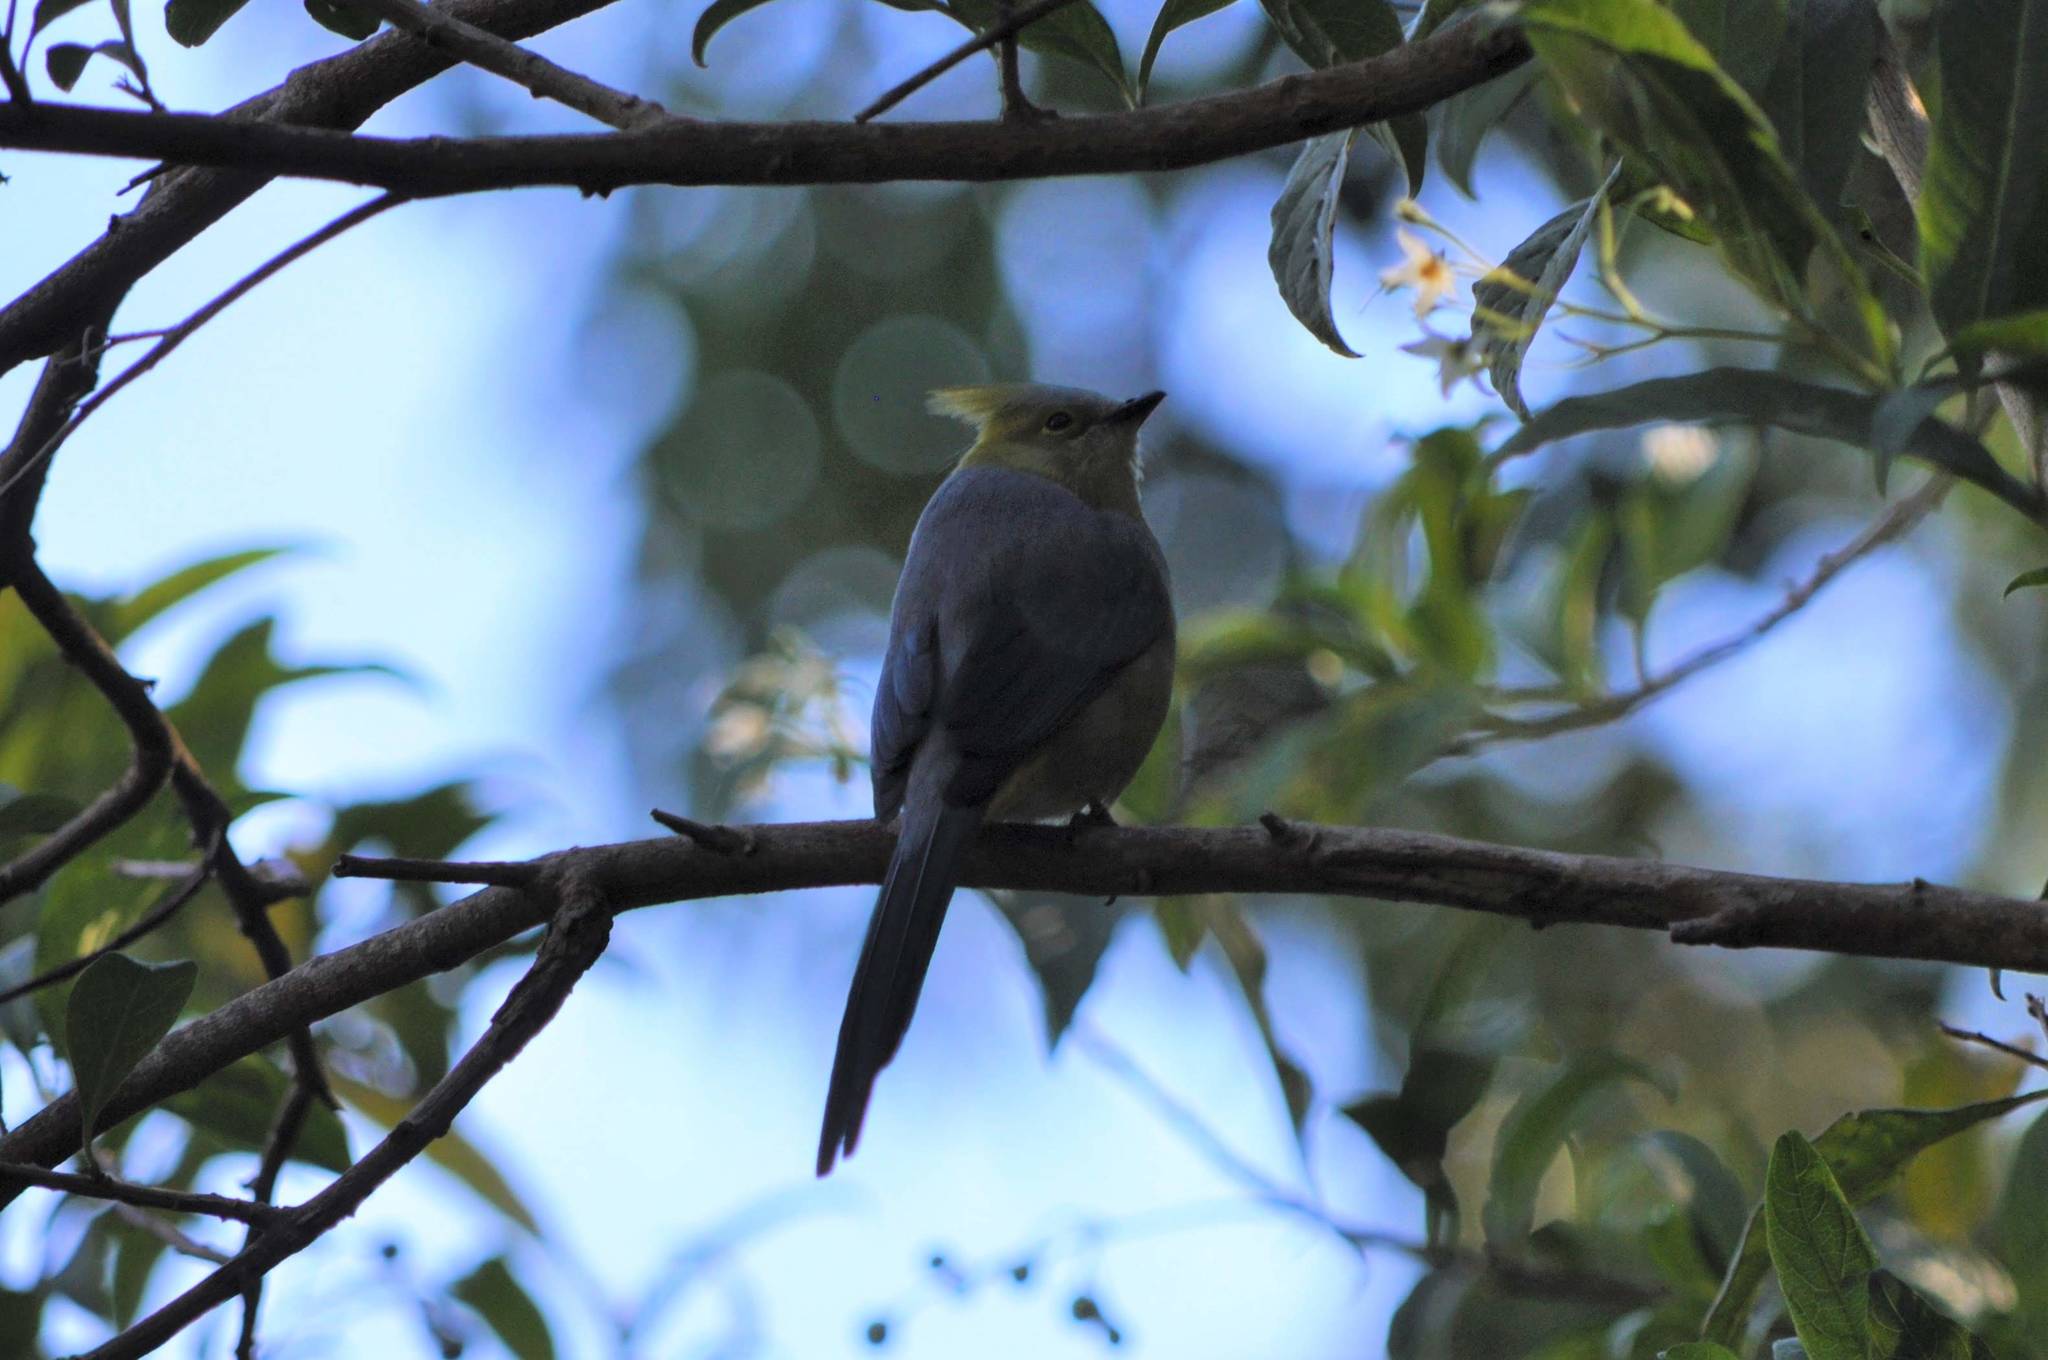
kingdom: Animalia
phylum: Chordata
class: Aves
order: Passeriformes
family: Ptilogonatidae
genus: Ptilogonys
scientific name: Ptilogonys caudatus
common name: Long-tailed silky-flycatcher
